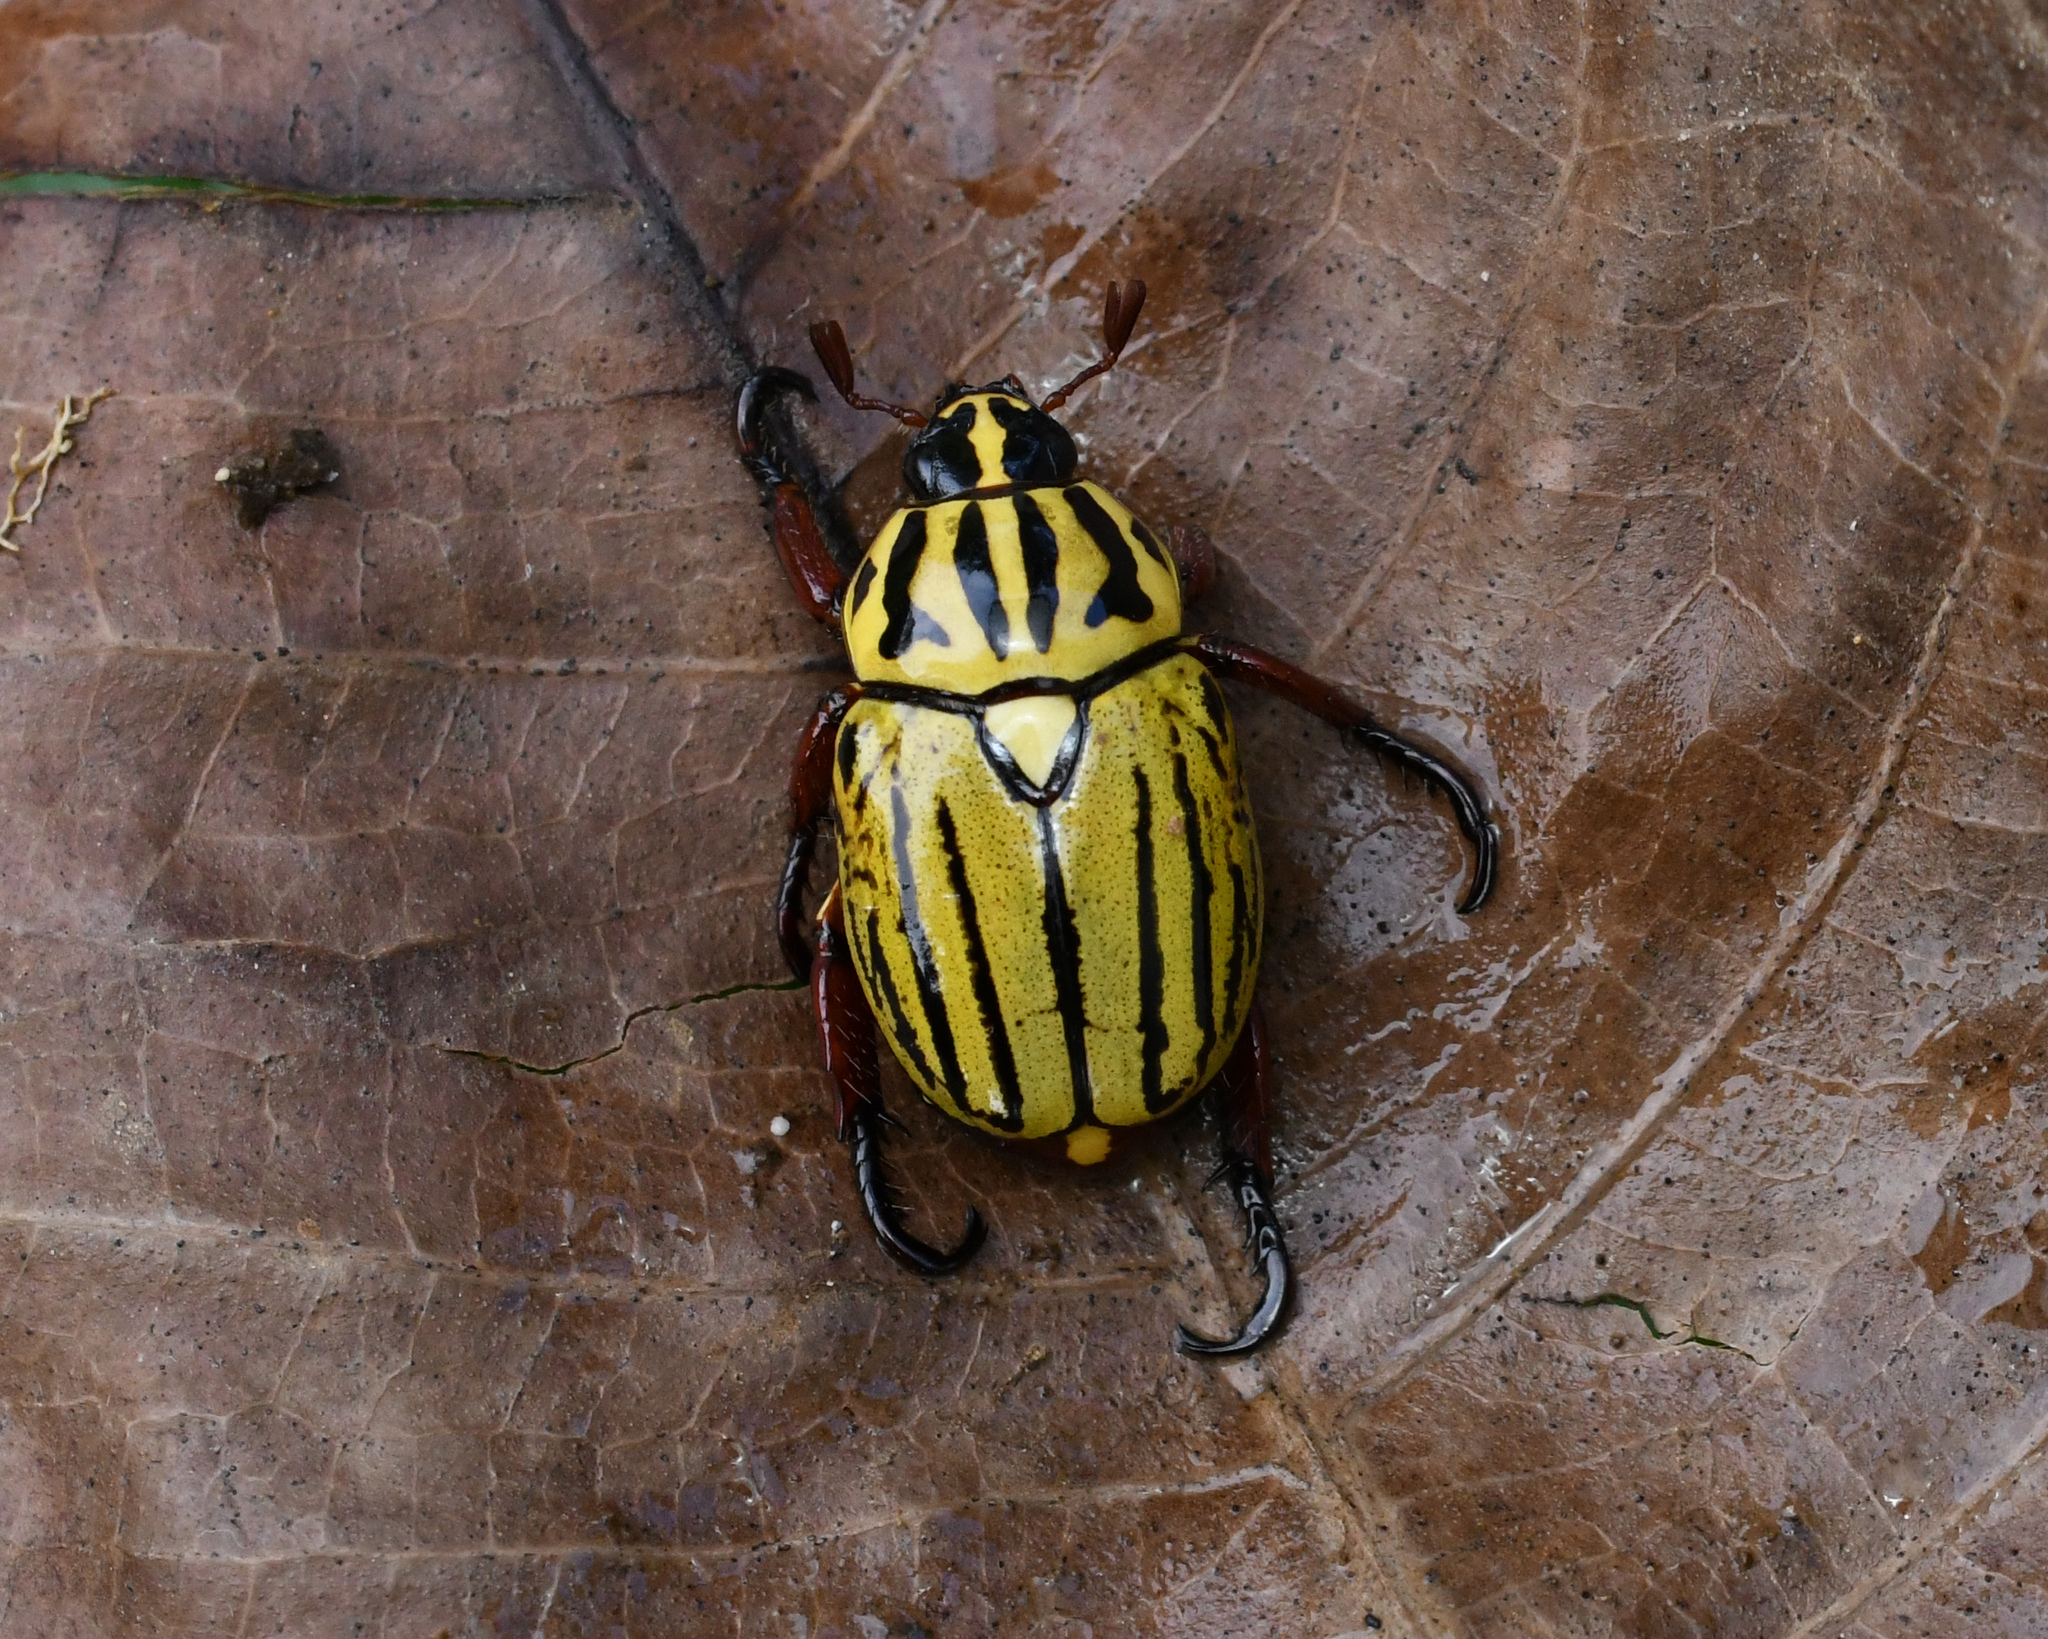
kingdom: Animalia
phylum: Arthropoda
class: Insecta
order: Coleoptera
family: Scarabaeidae
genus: Rutela
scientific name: Rutela dorcyi
